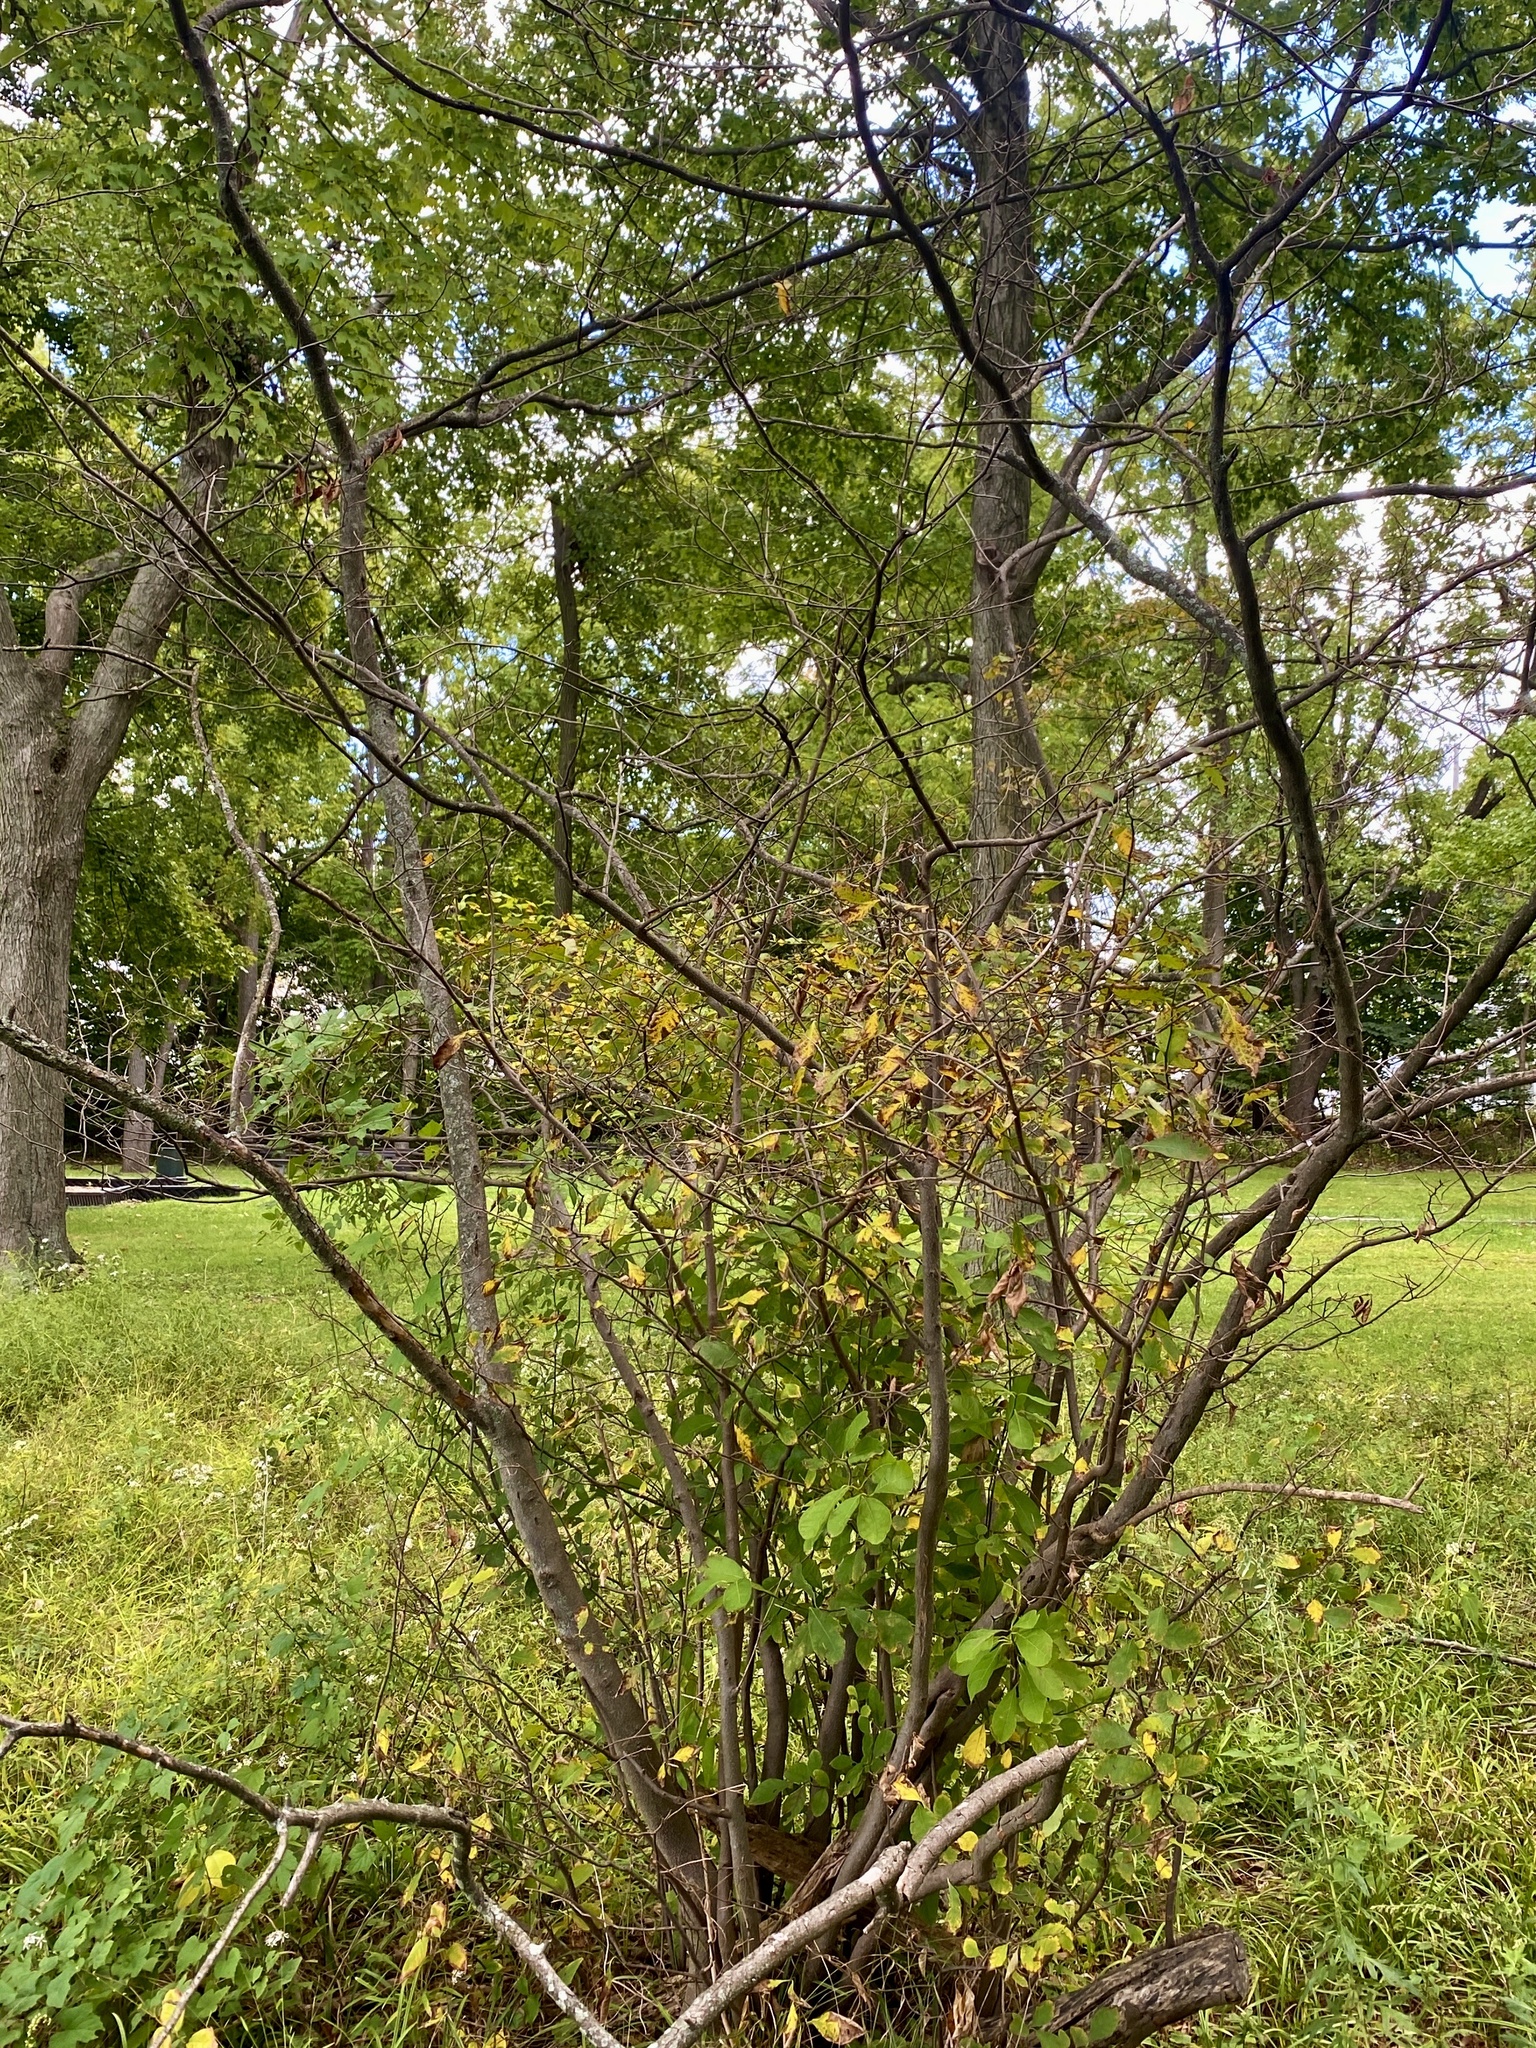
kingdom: Plantae
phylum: Tracheophyta
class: Magnoliopsida
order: Laurales
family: Lauraceae
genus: Lindera
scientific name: Lindera benzoin
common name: Spicebush
